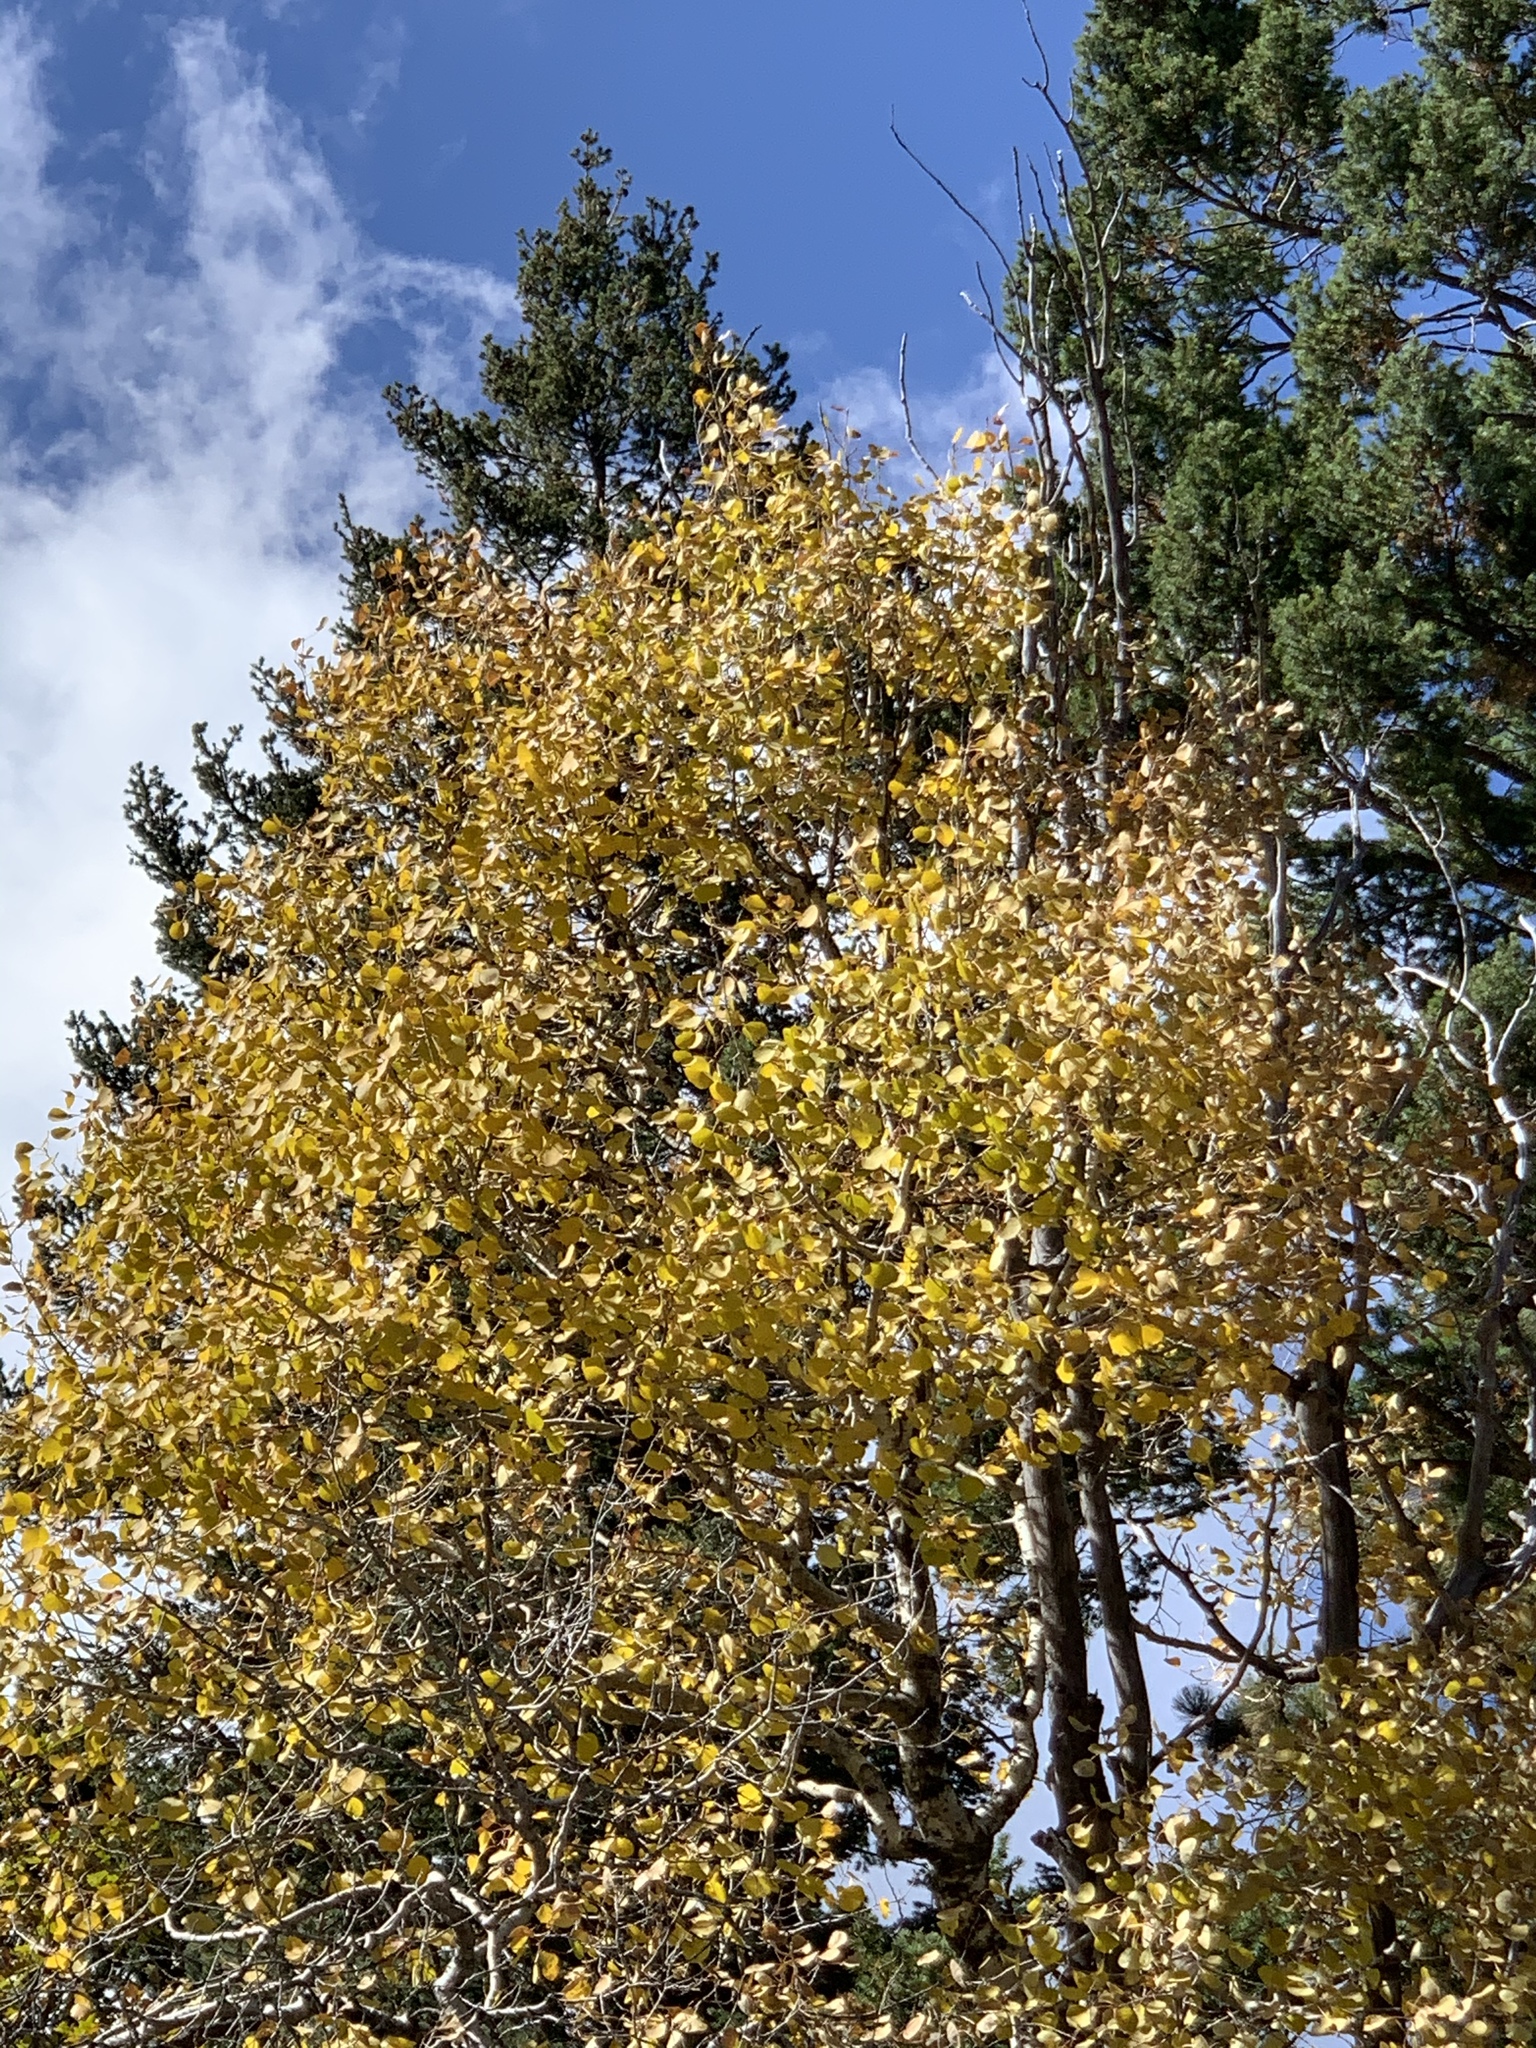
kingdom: Plantae
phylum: Tracheophyta
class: Magnoliopsida
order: Malpighiales
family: Salicaceae
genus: Populus
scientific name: Populus tremuloides
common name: Quaking aspen
